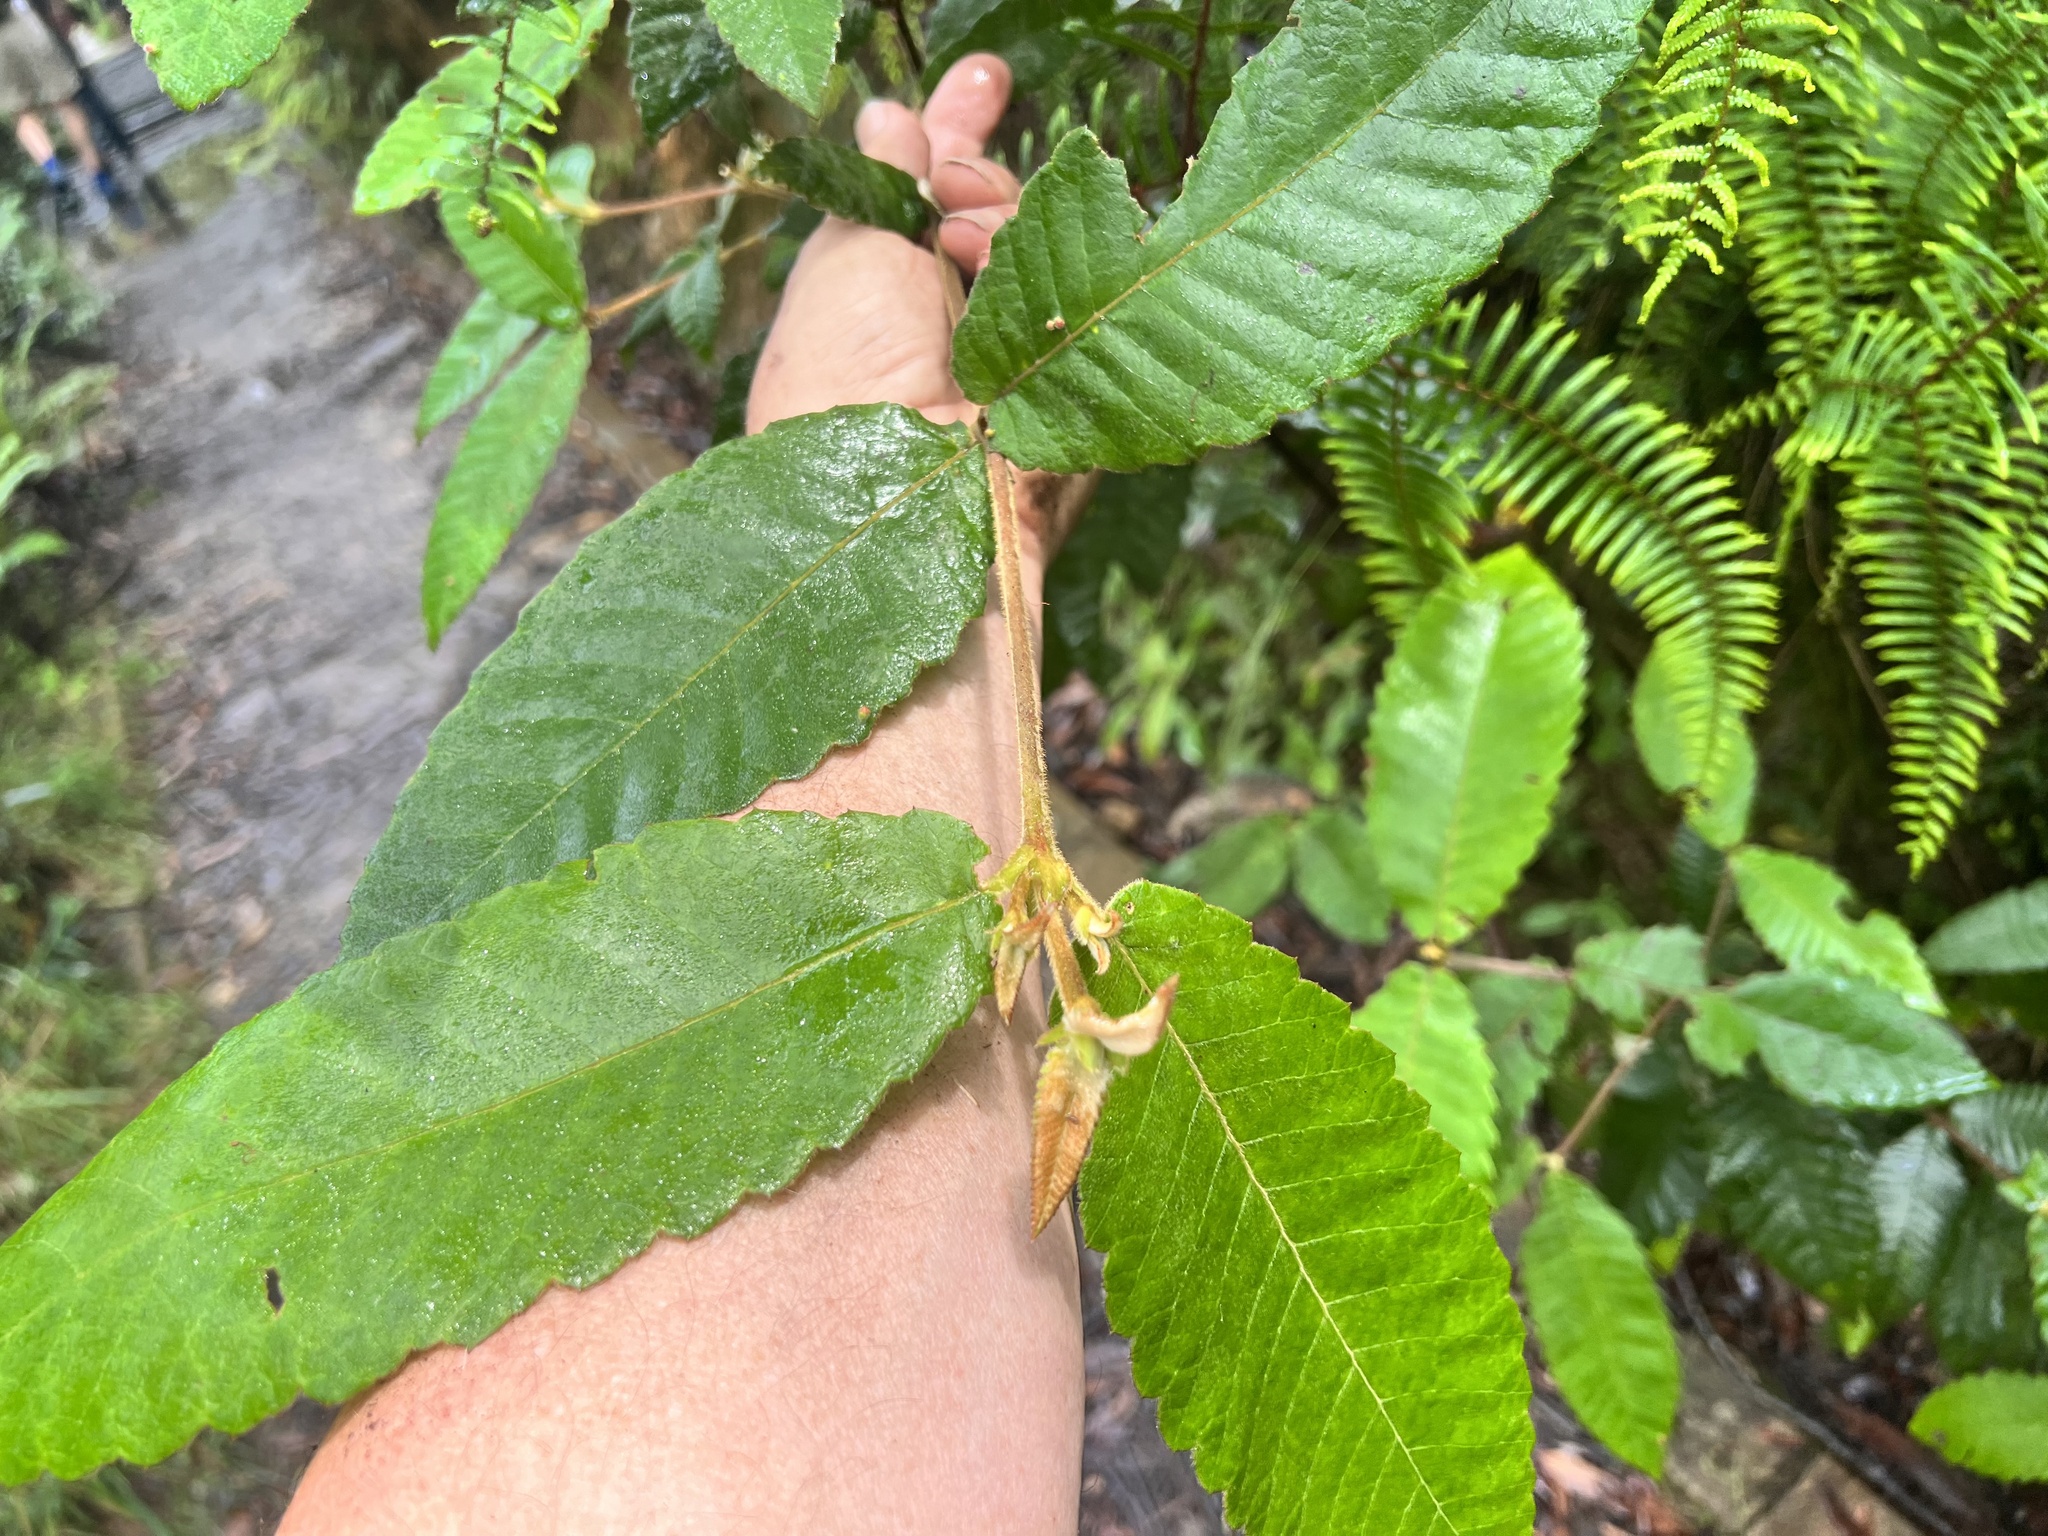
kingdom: Plantae
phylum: Tracheophyta
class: Magnoliopsida
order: Oxalidales
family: Cunoniaceae
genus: Callicoma
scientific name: Callicoma serratifolia
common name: Black wattle
